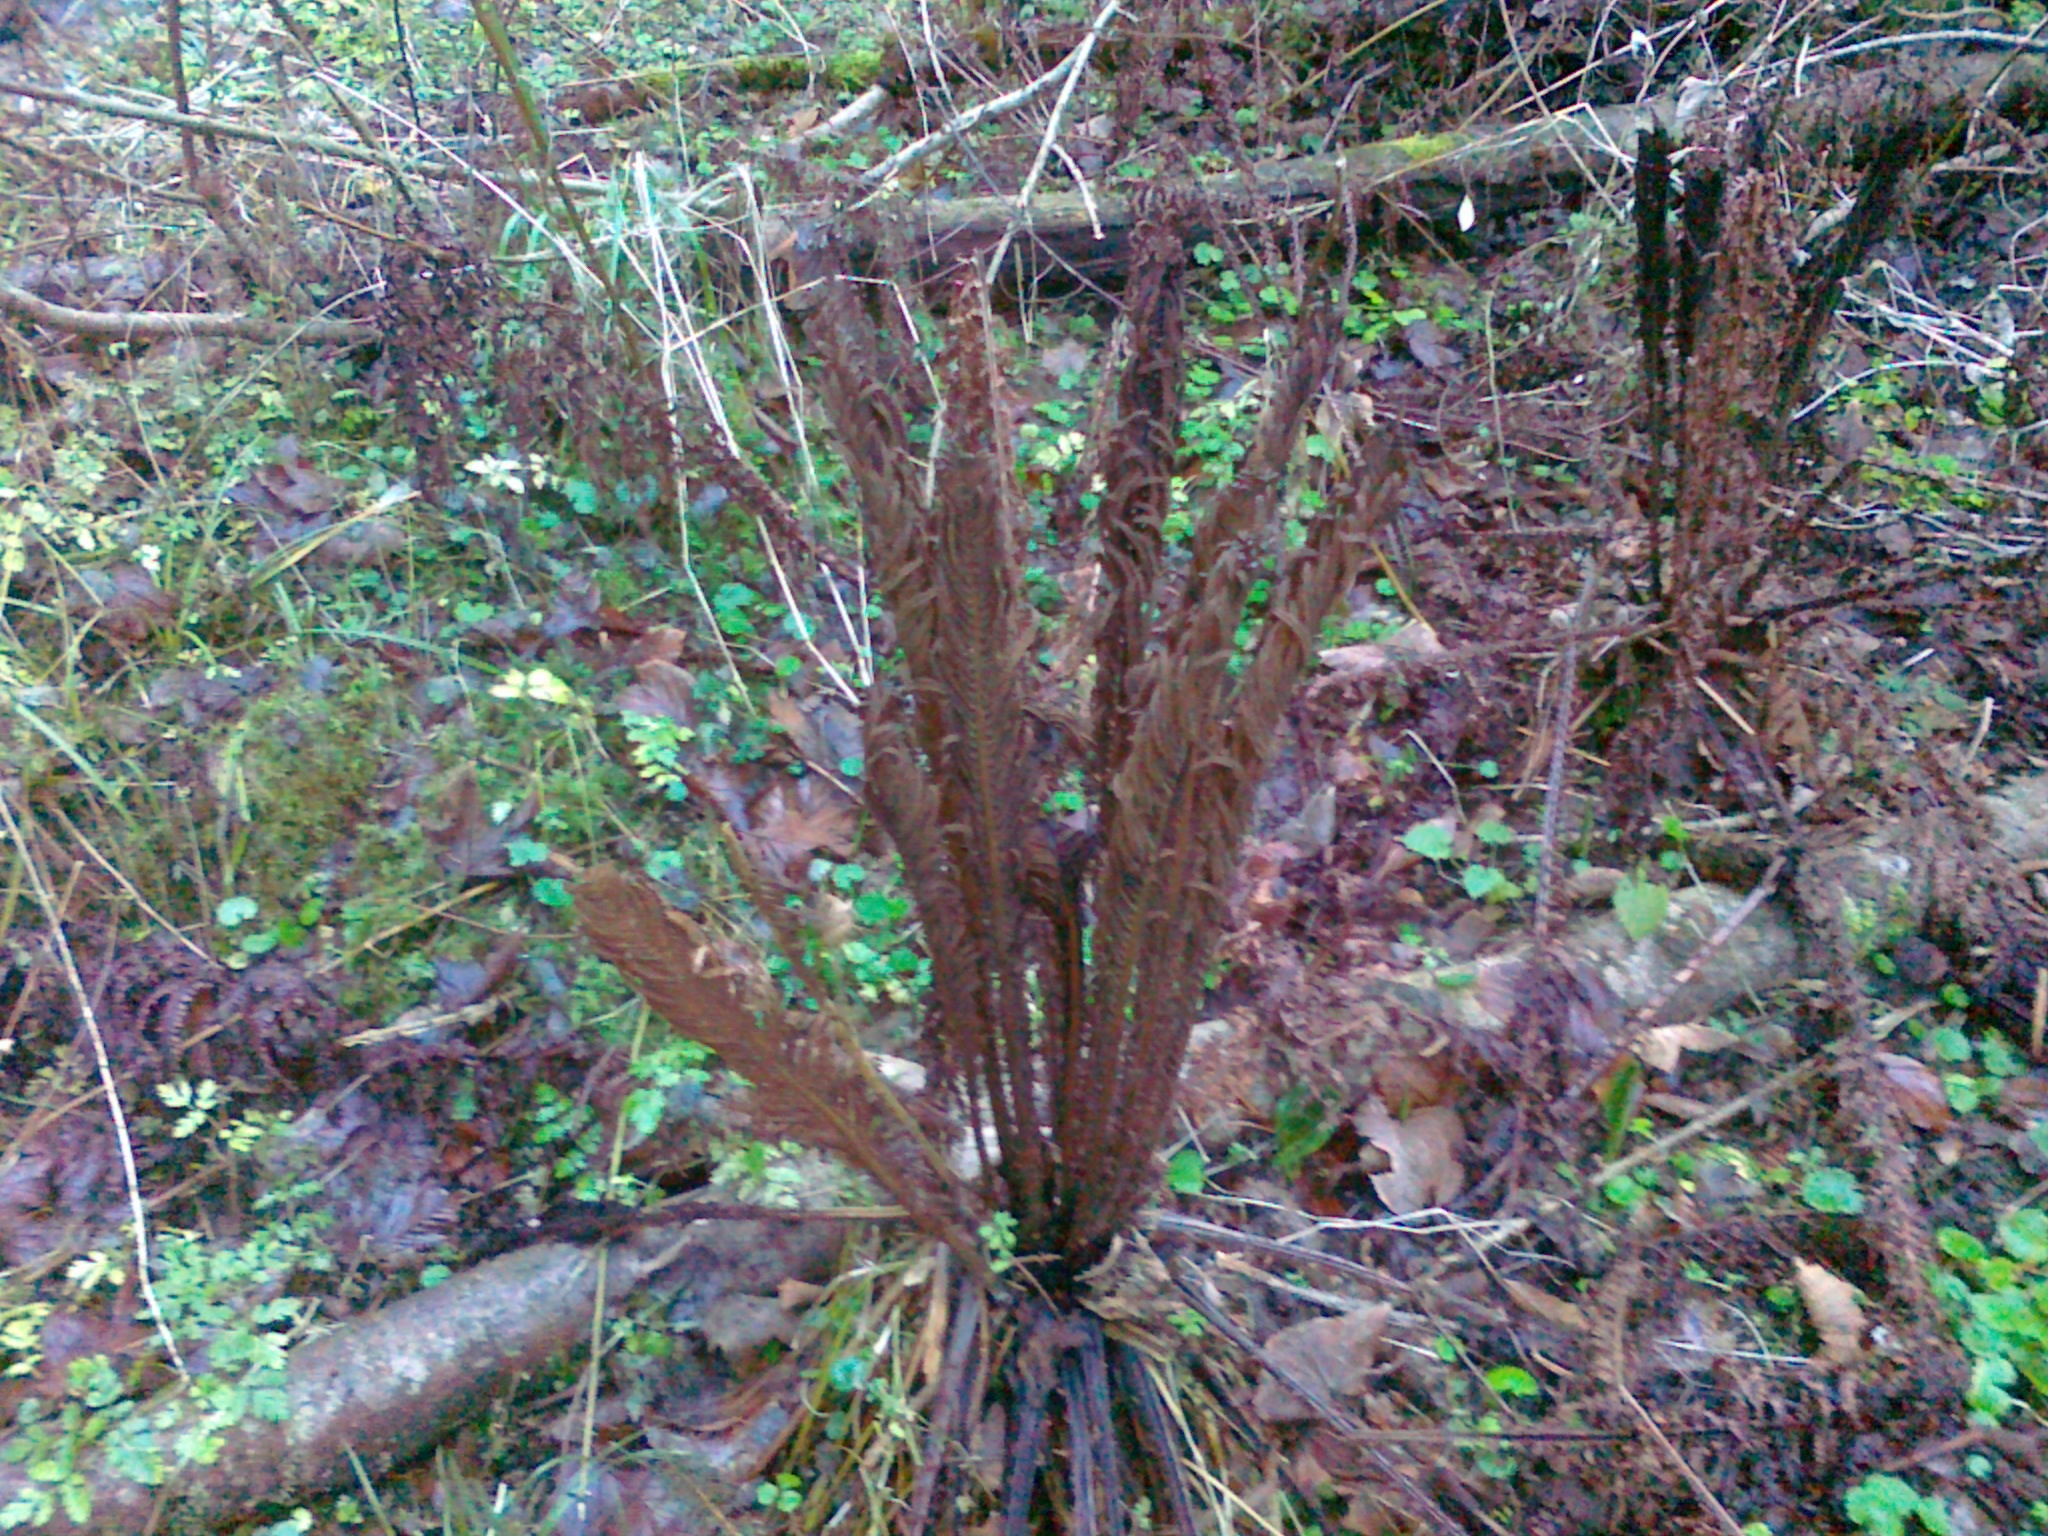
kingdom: Plantae
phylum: Tracheophyta
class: Polypodiopsida
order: Polypodiales
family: Onocleaceae
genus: Matteuccia
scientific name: Matteuccia struthiopteris
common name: Ostrich fern
